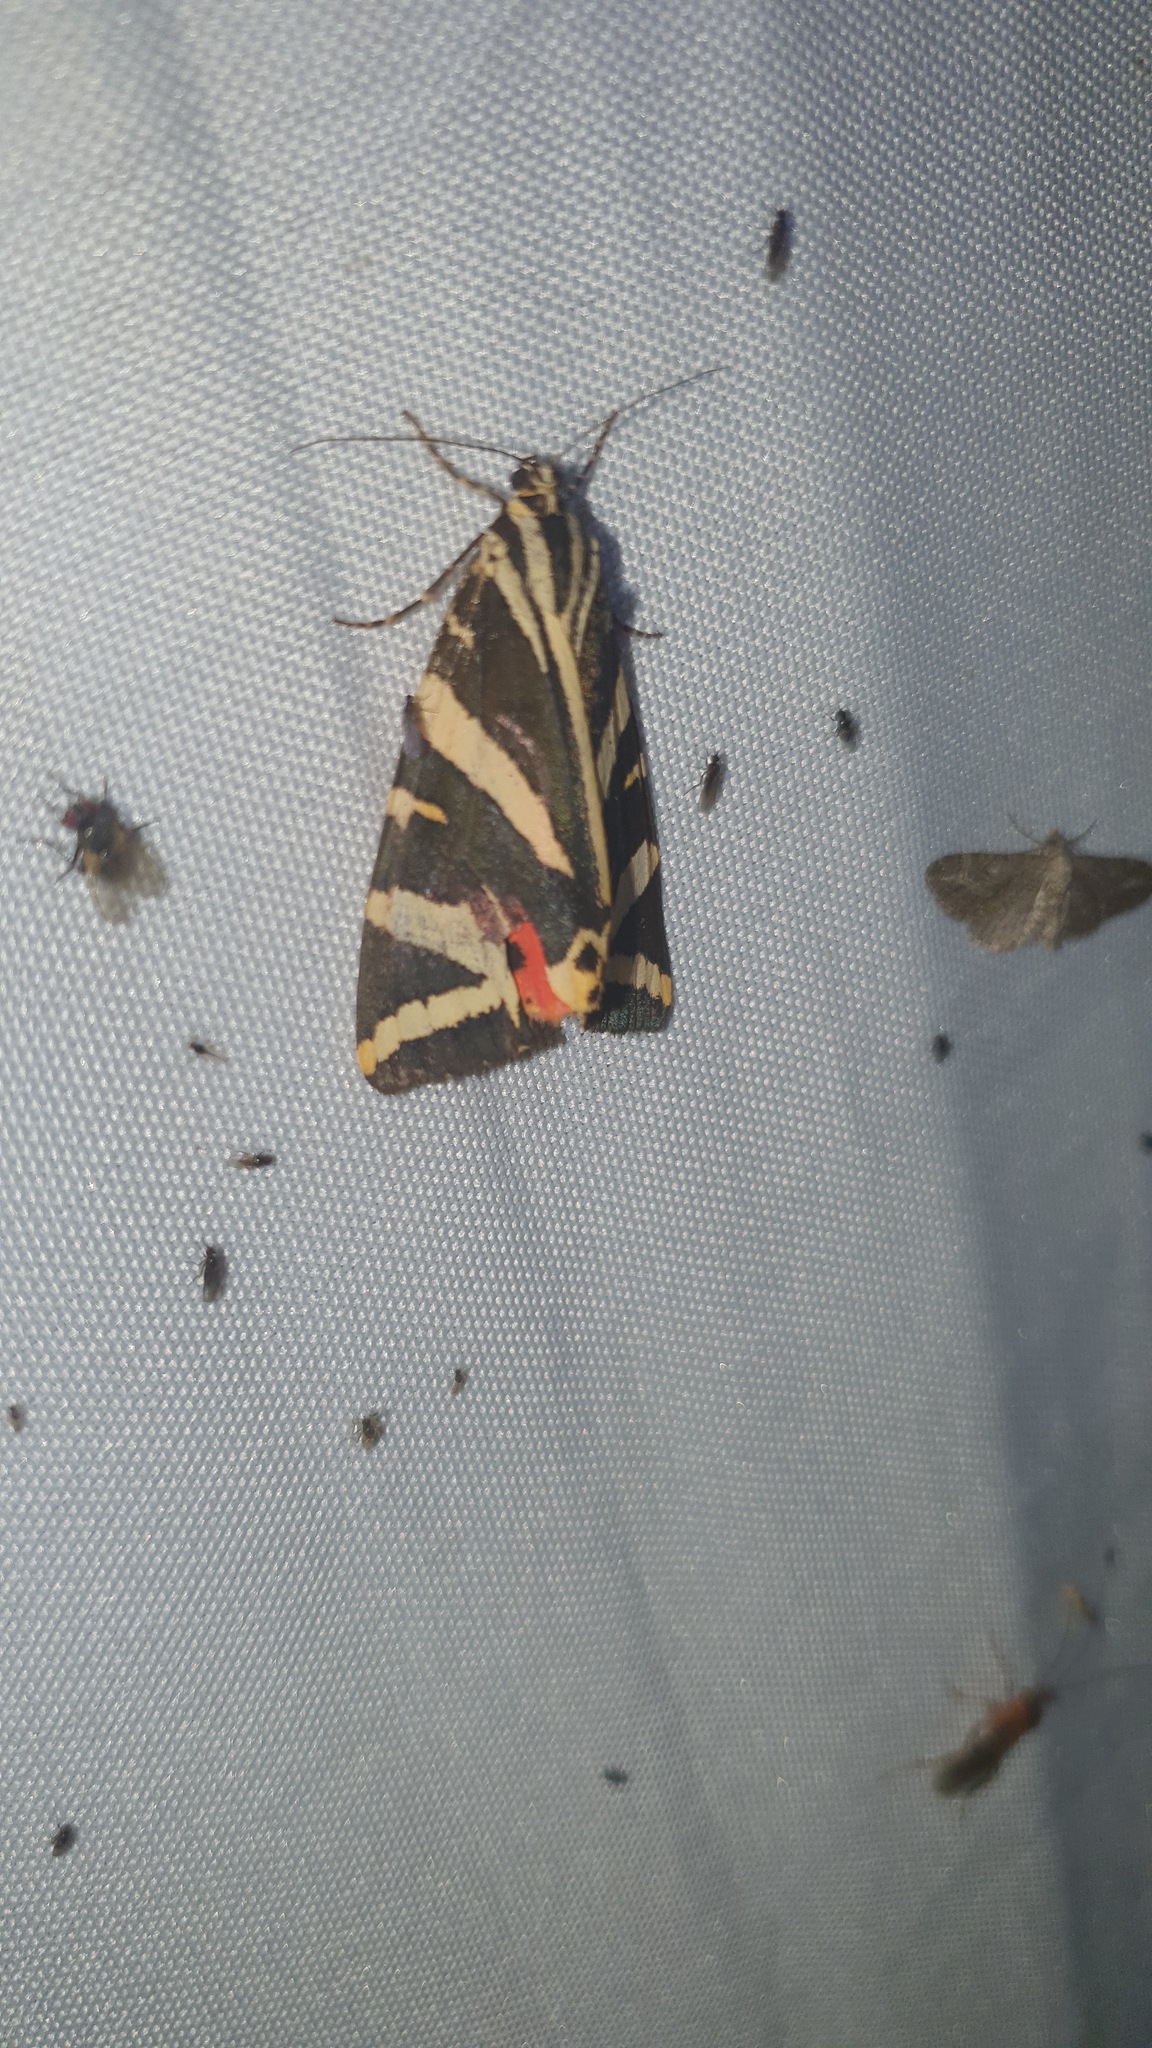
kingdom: Animalia
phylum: Arthropoda
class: Insecta
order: Lepidoptera
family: Erebidae
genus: Euplagia
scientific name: Euplagia quadripunctaria
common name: Jersey tiger
